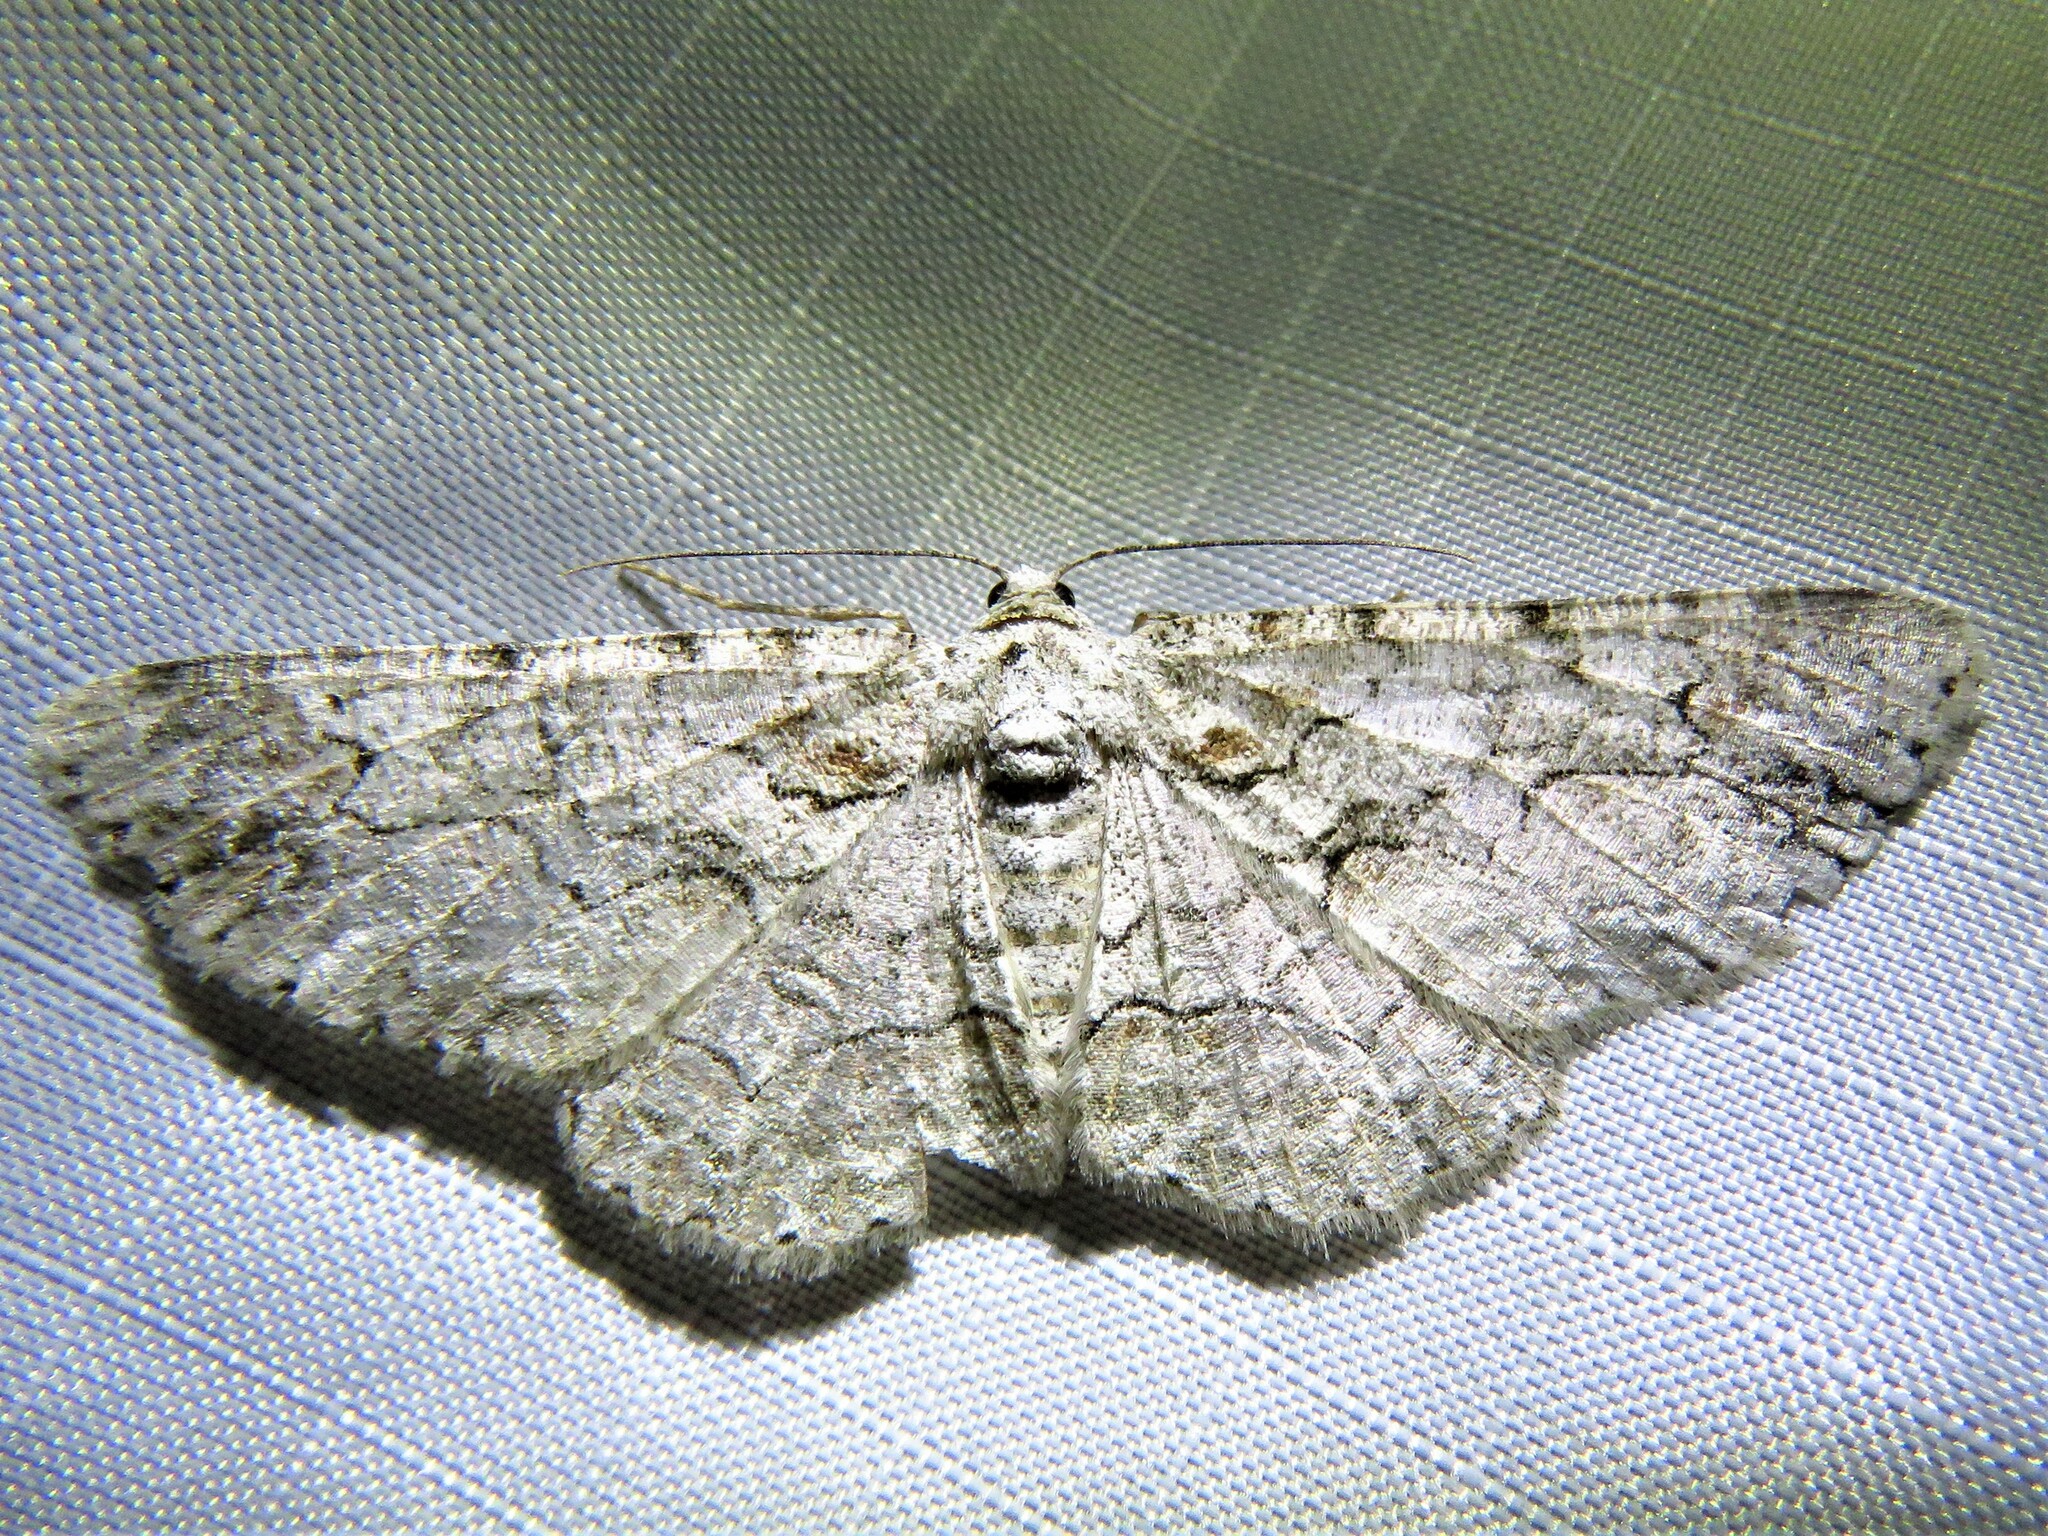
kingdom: Animalia
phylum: Arthropoda
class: Insecta
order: Lepidoptera
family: Geometridae
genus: Iridopsis
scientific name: Iridopsis defectaria
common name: Brown-shaded gray
